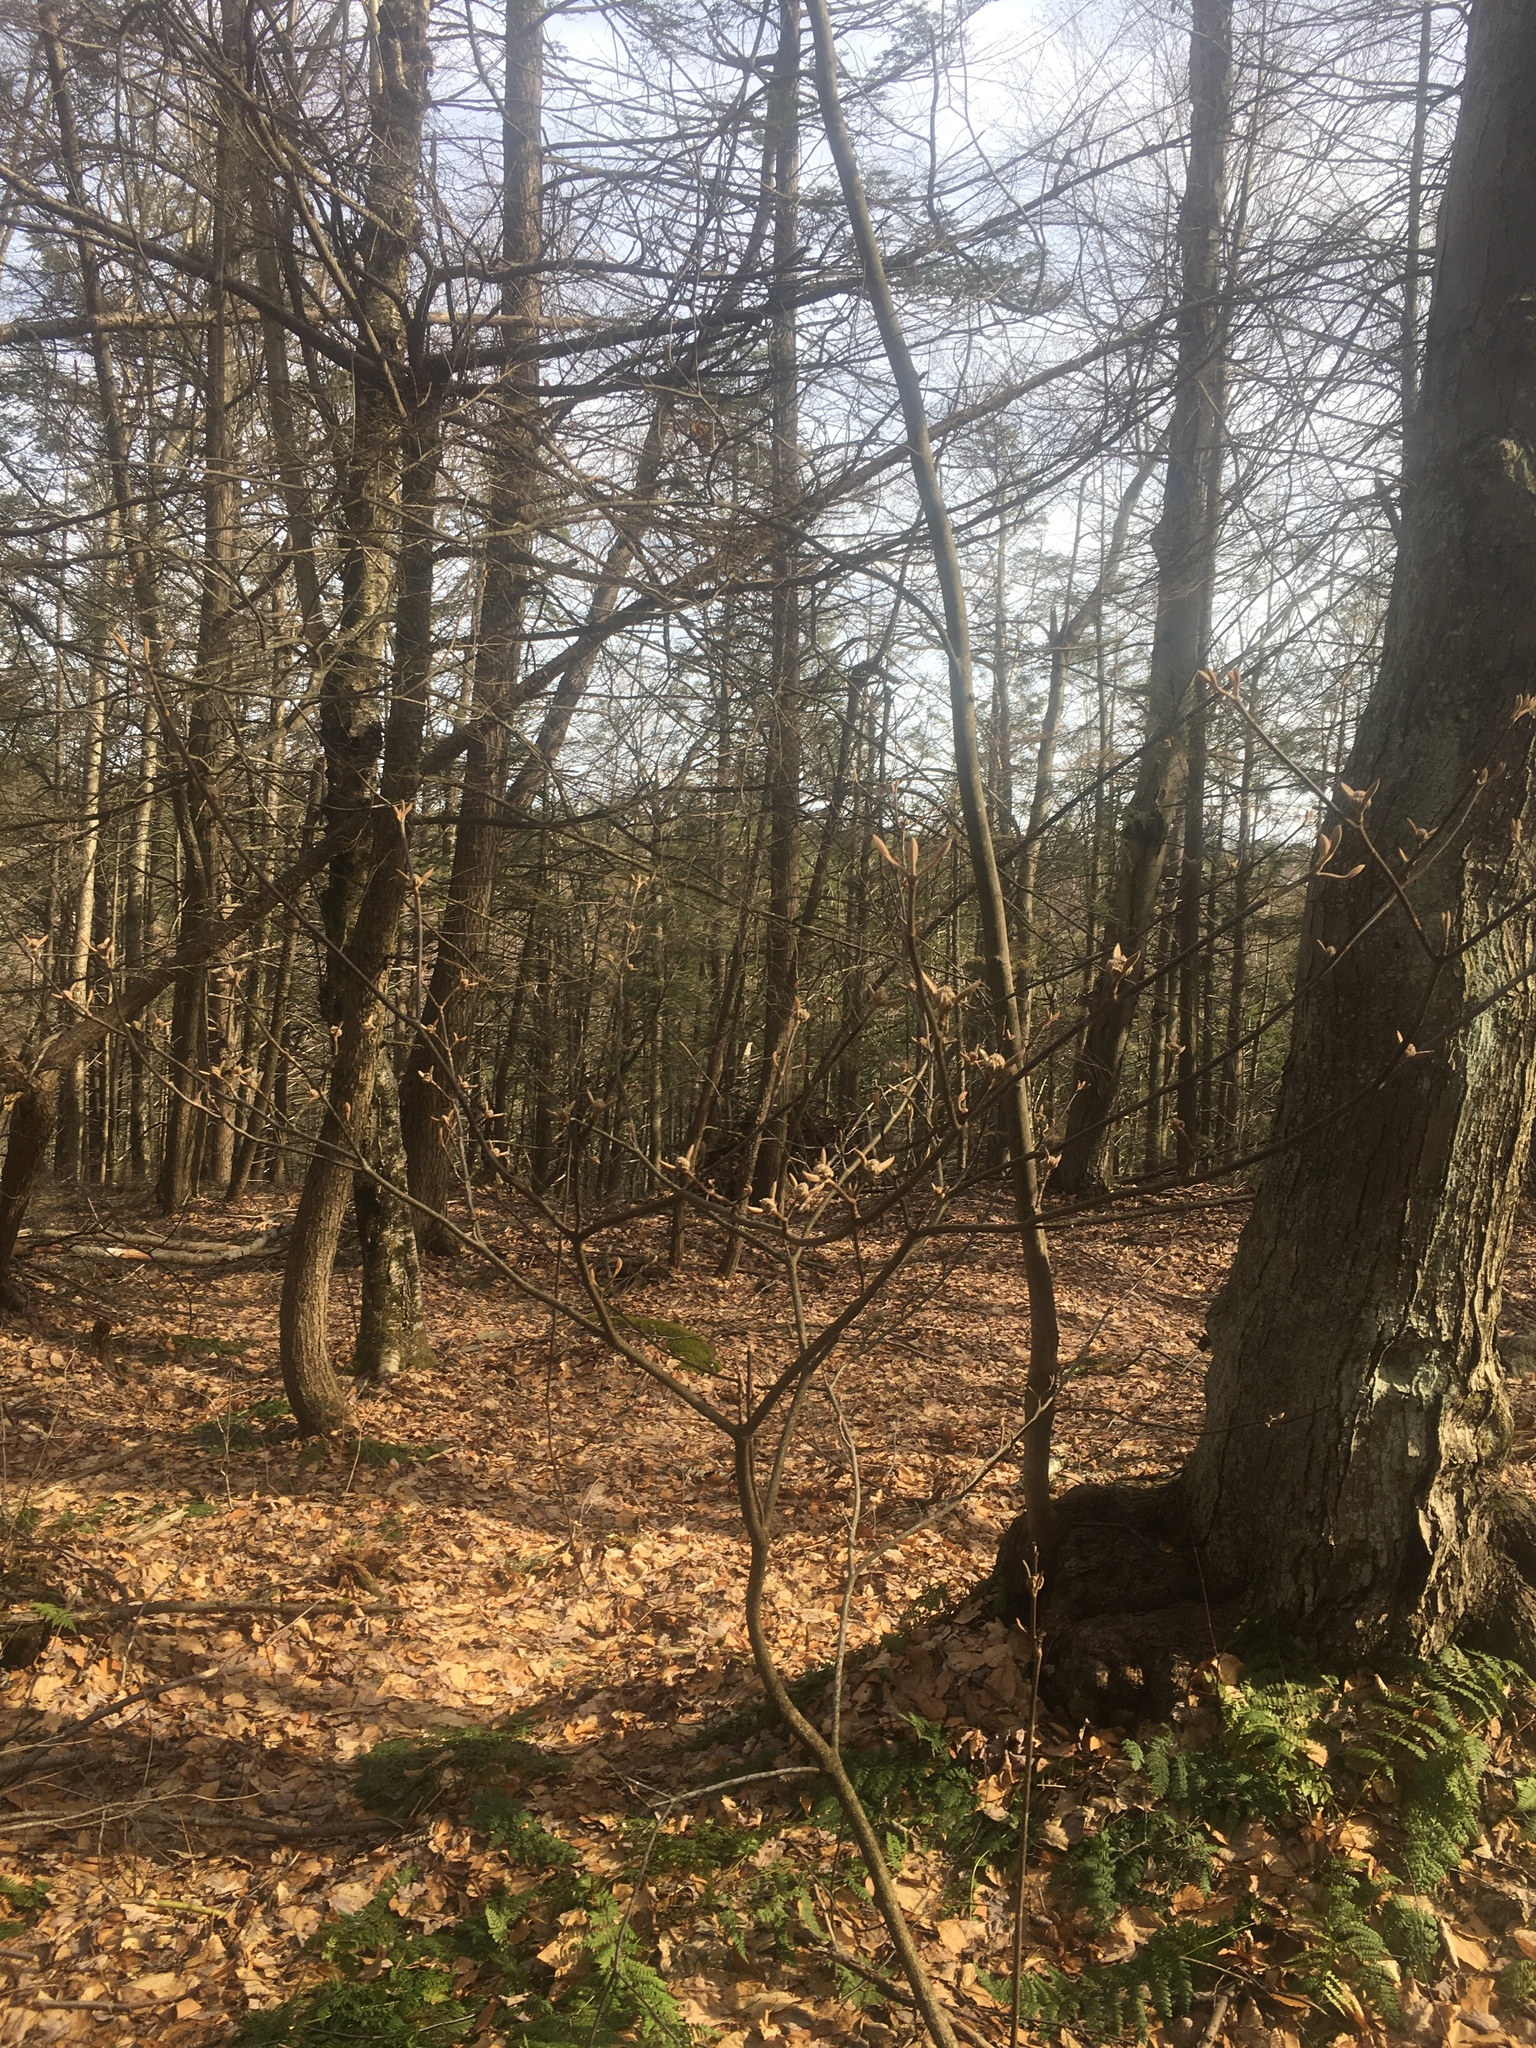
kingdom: Plantae
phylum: Tracheophyta
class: Magnoliopsida
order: Dipsacales
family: Viburnaceae
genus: Viburnum
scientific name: Viburnum lantanoides
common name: Hobblebush
